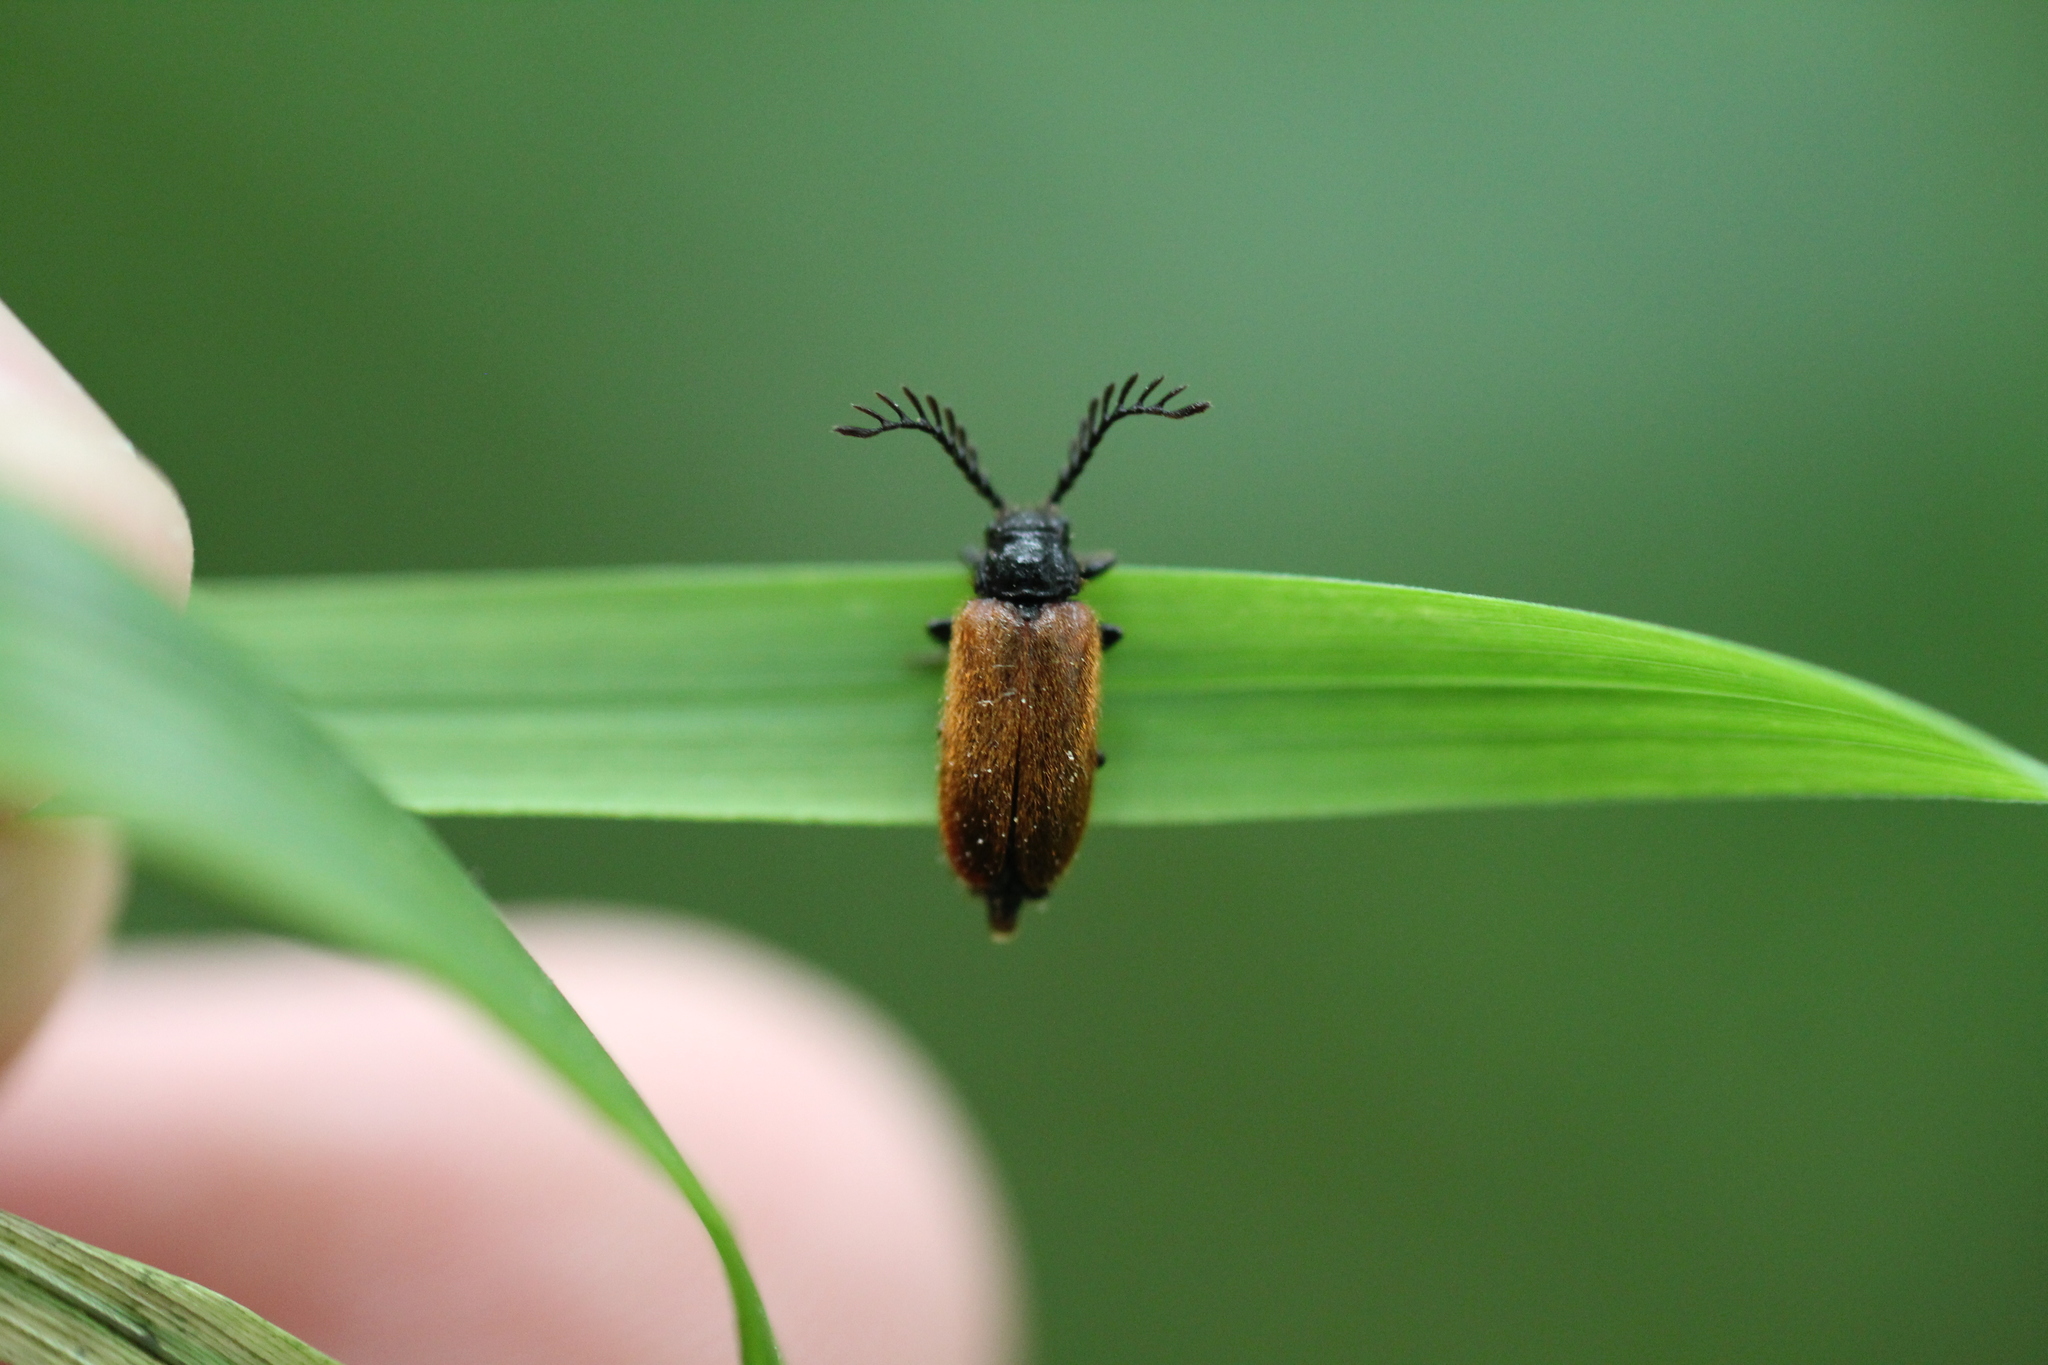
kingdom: Animalia
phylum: Arthropoda
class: Insecta
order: Coleoptera
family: Drilidae
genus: Drilus
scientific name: Drilus flavescens
